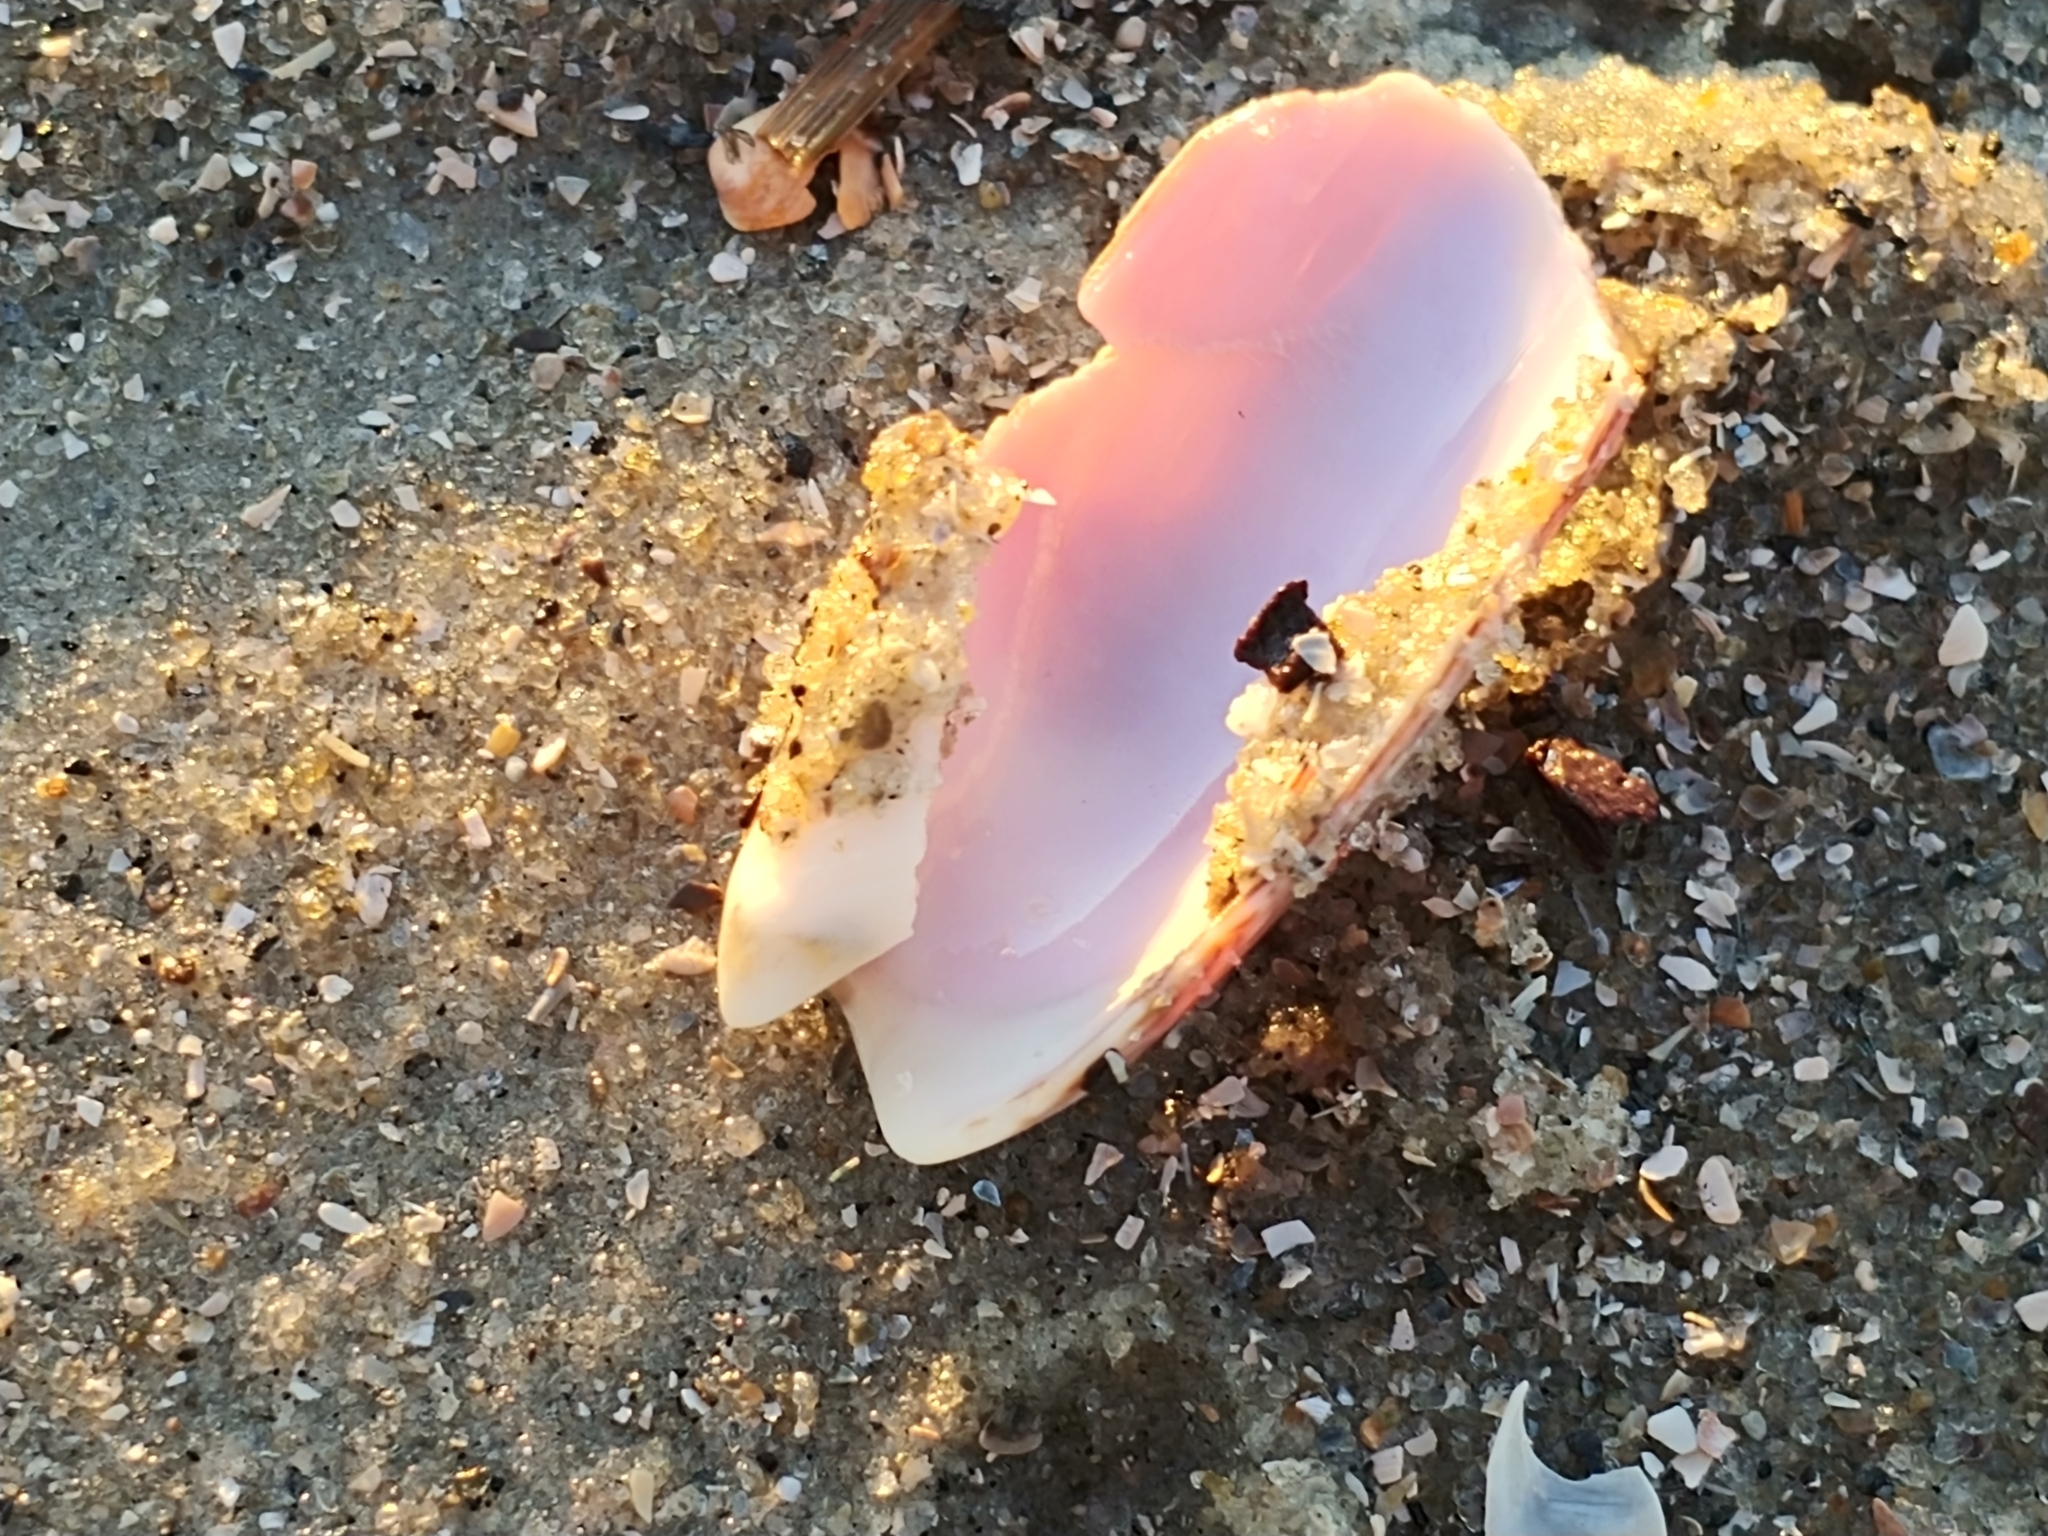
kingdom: Animalia
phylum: Mollusca
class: Gastropoda
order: Neogastropoda
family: Olividae
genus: Oliva
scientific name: Oliva sayana
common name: Lettered olive
